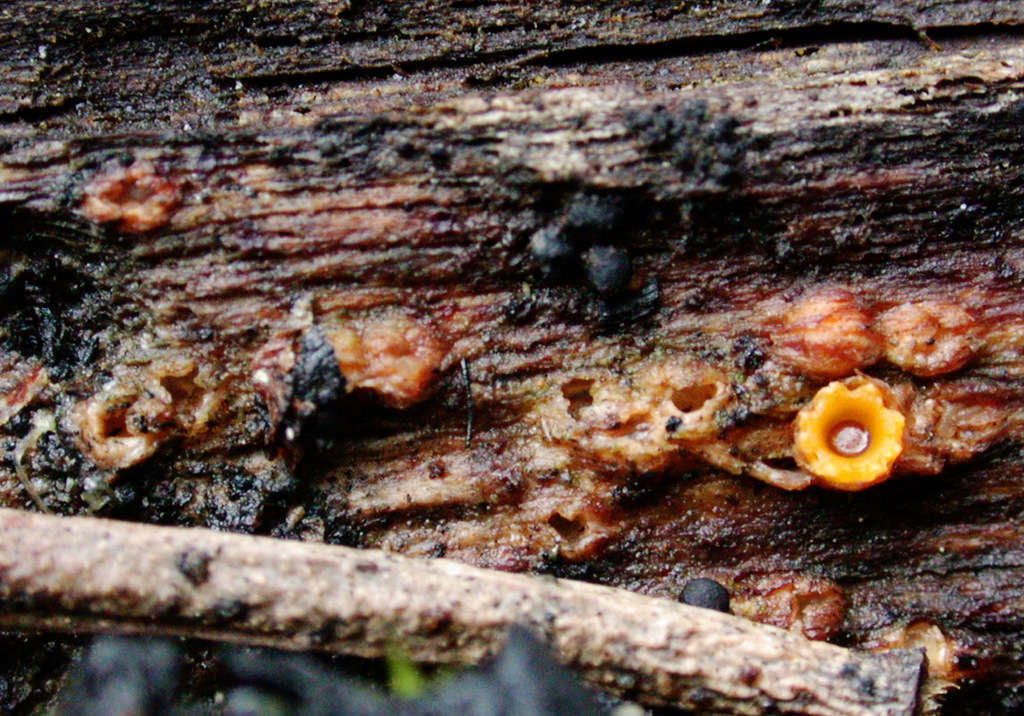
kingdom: Fungi
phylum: Basidiomycota
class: Agaricomycetes
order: Geastrales
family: Geastraceae
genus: Sphaerobolus
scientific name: Sphaerobolus stellatus
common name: Cannon fungus
